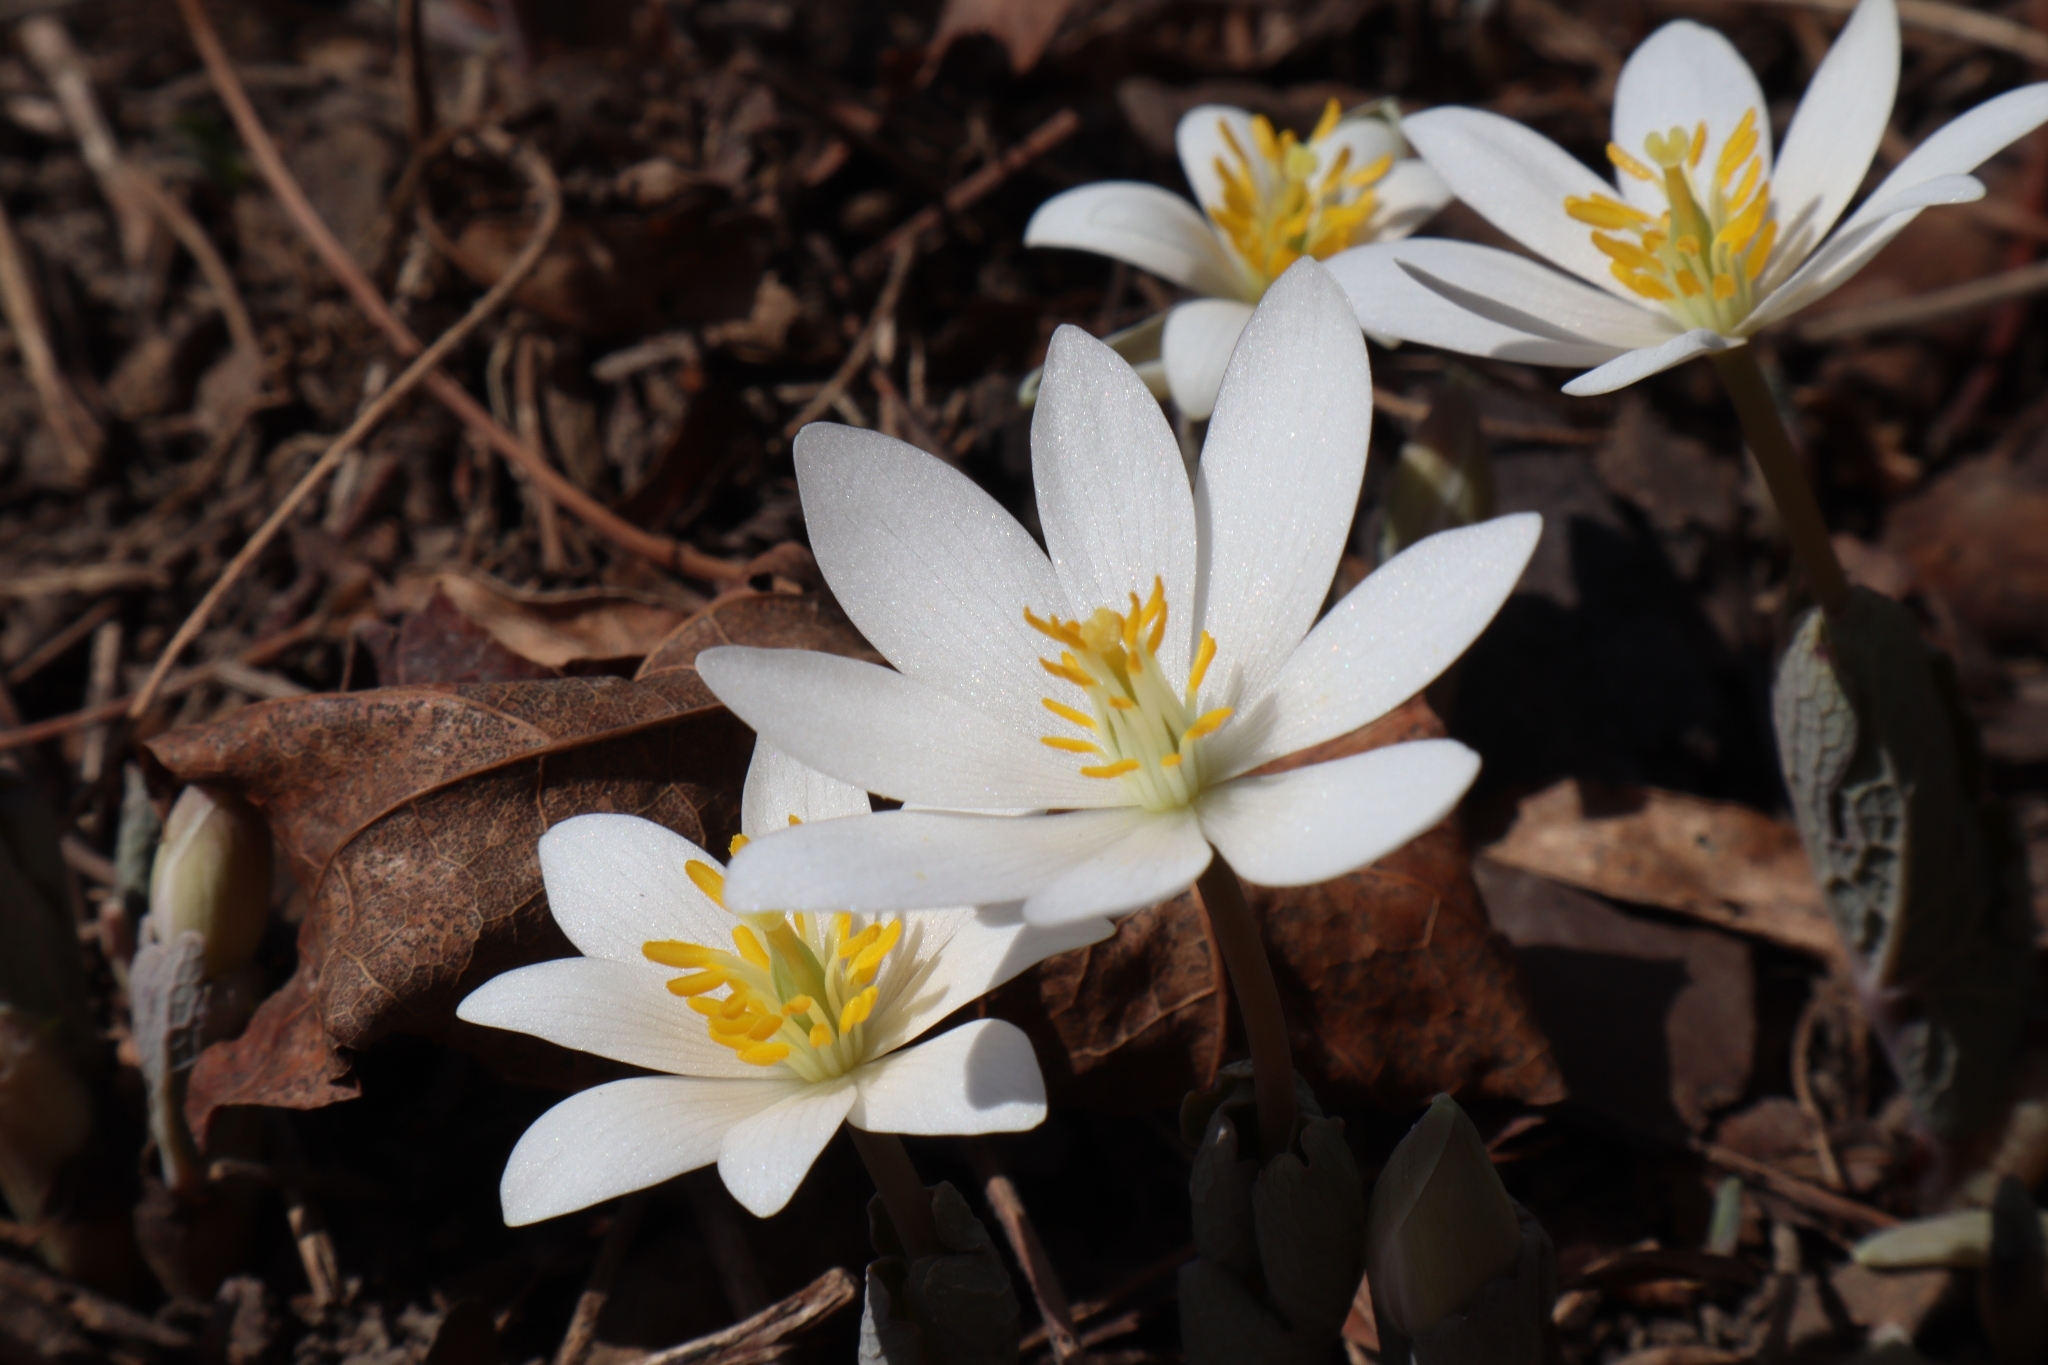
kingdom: Plantae
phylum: Tracheophyta
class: Magnoliopsida
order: Ranunculales
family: Papaveraceae
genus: Sanguinaria
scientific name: Sanguinaria canadensis
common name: Bloodroot
